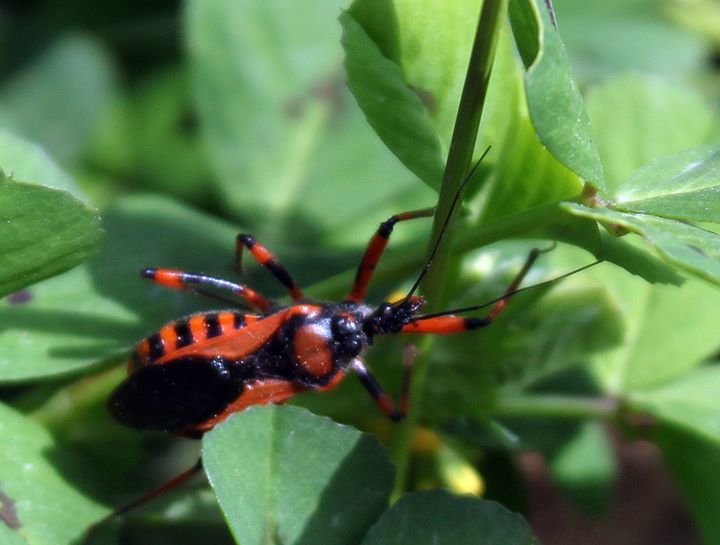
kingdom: Animalia
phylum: Arthropoda
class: Insecta
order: Hemiptera
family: Reduviidae
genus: Rhynocoris
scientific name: Rhynocoris iracundus
